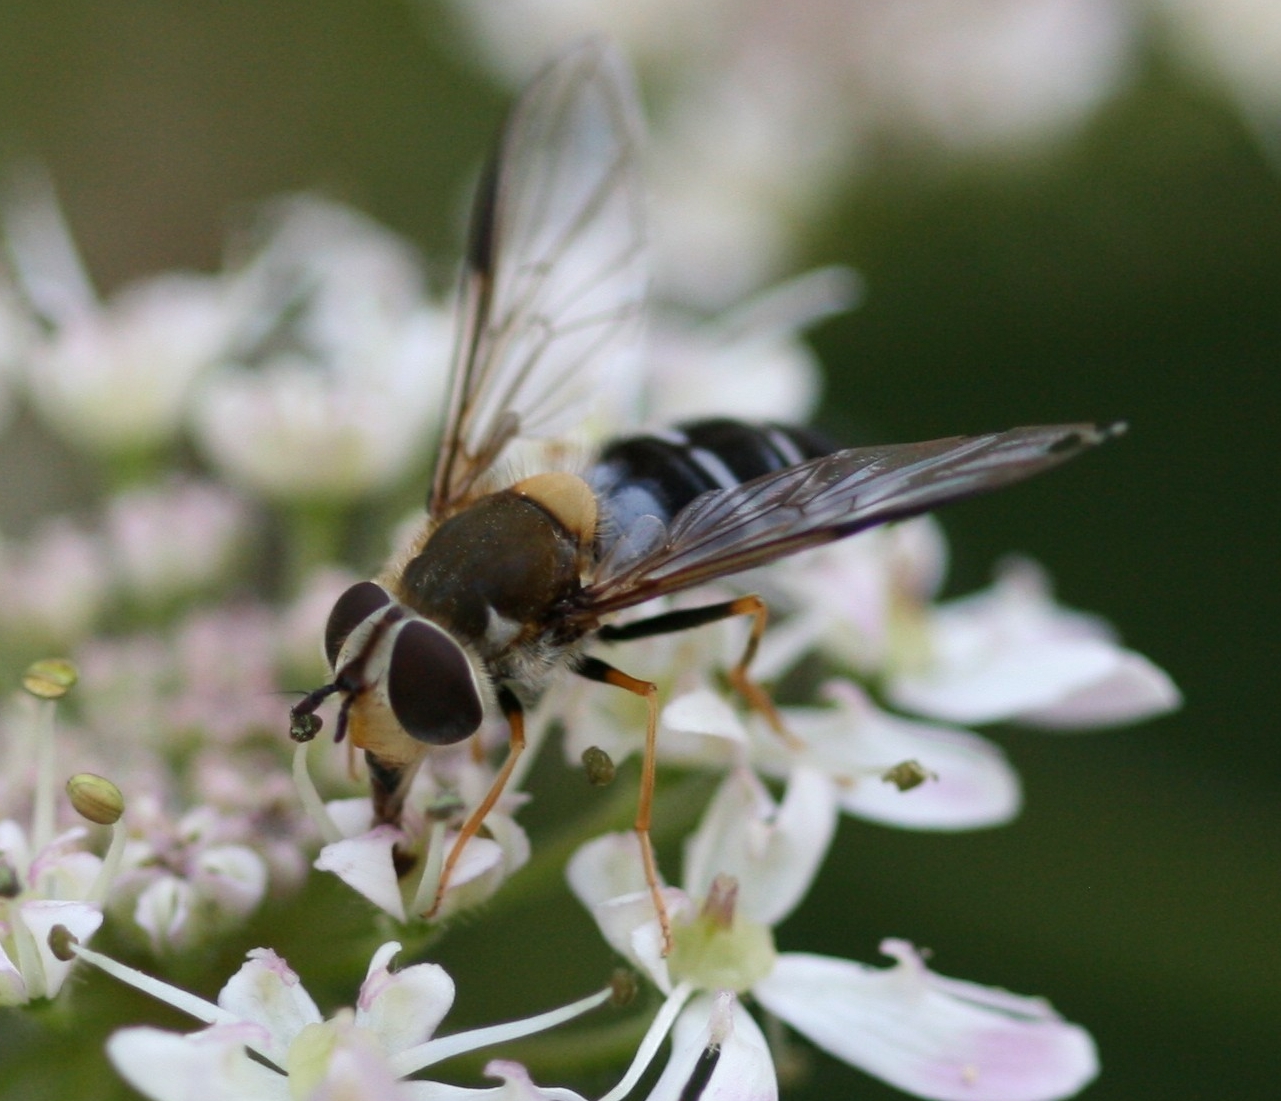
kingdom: Animalia
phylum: Arthropoda
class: Insecta
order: Diptera
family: Syrphidae
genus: Leucozona
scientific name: Leucozona glaucia
